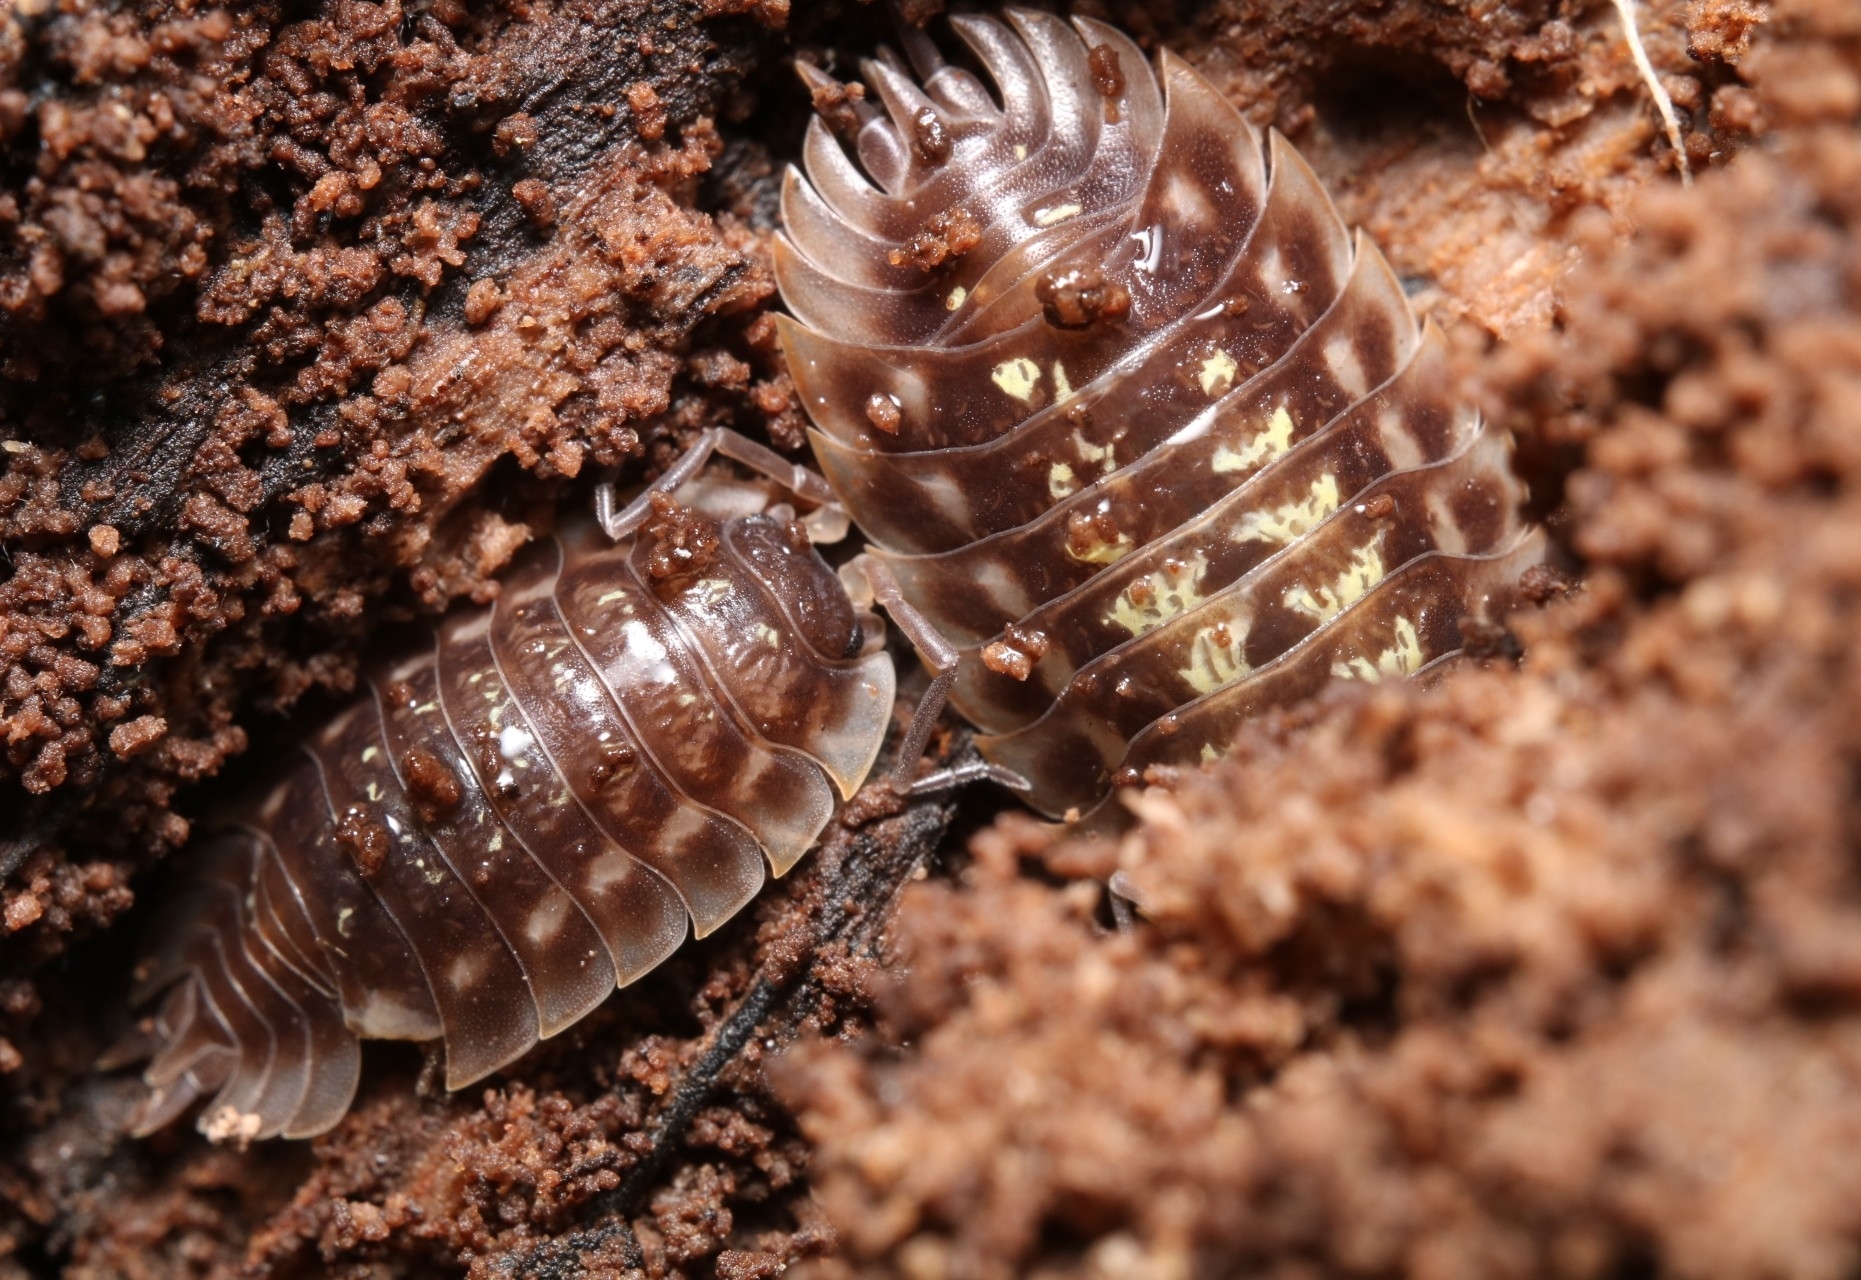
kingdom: Animalia
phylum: Arthropoda
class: Malacostraca
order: Isopoda
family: Oniscidae
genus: Oniscus
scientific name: Oniscus asellus
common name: Common shiny woodlouse
